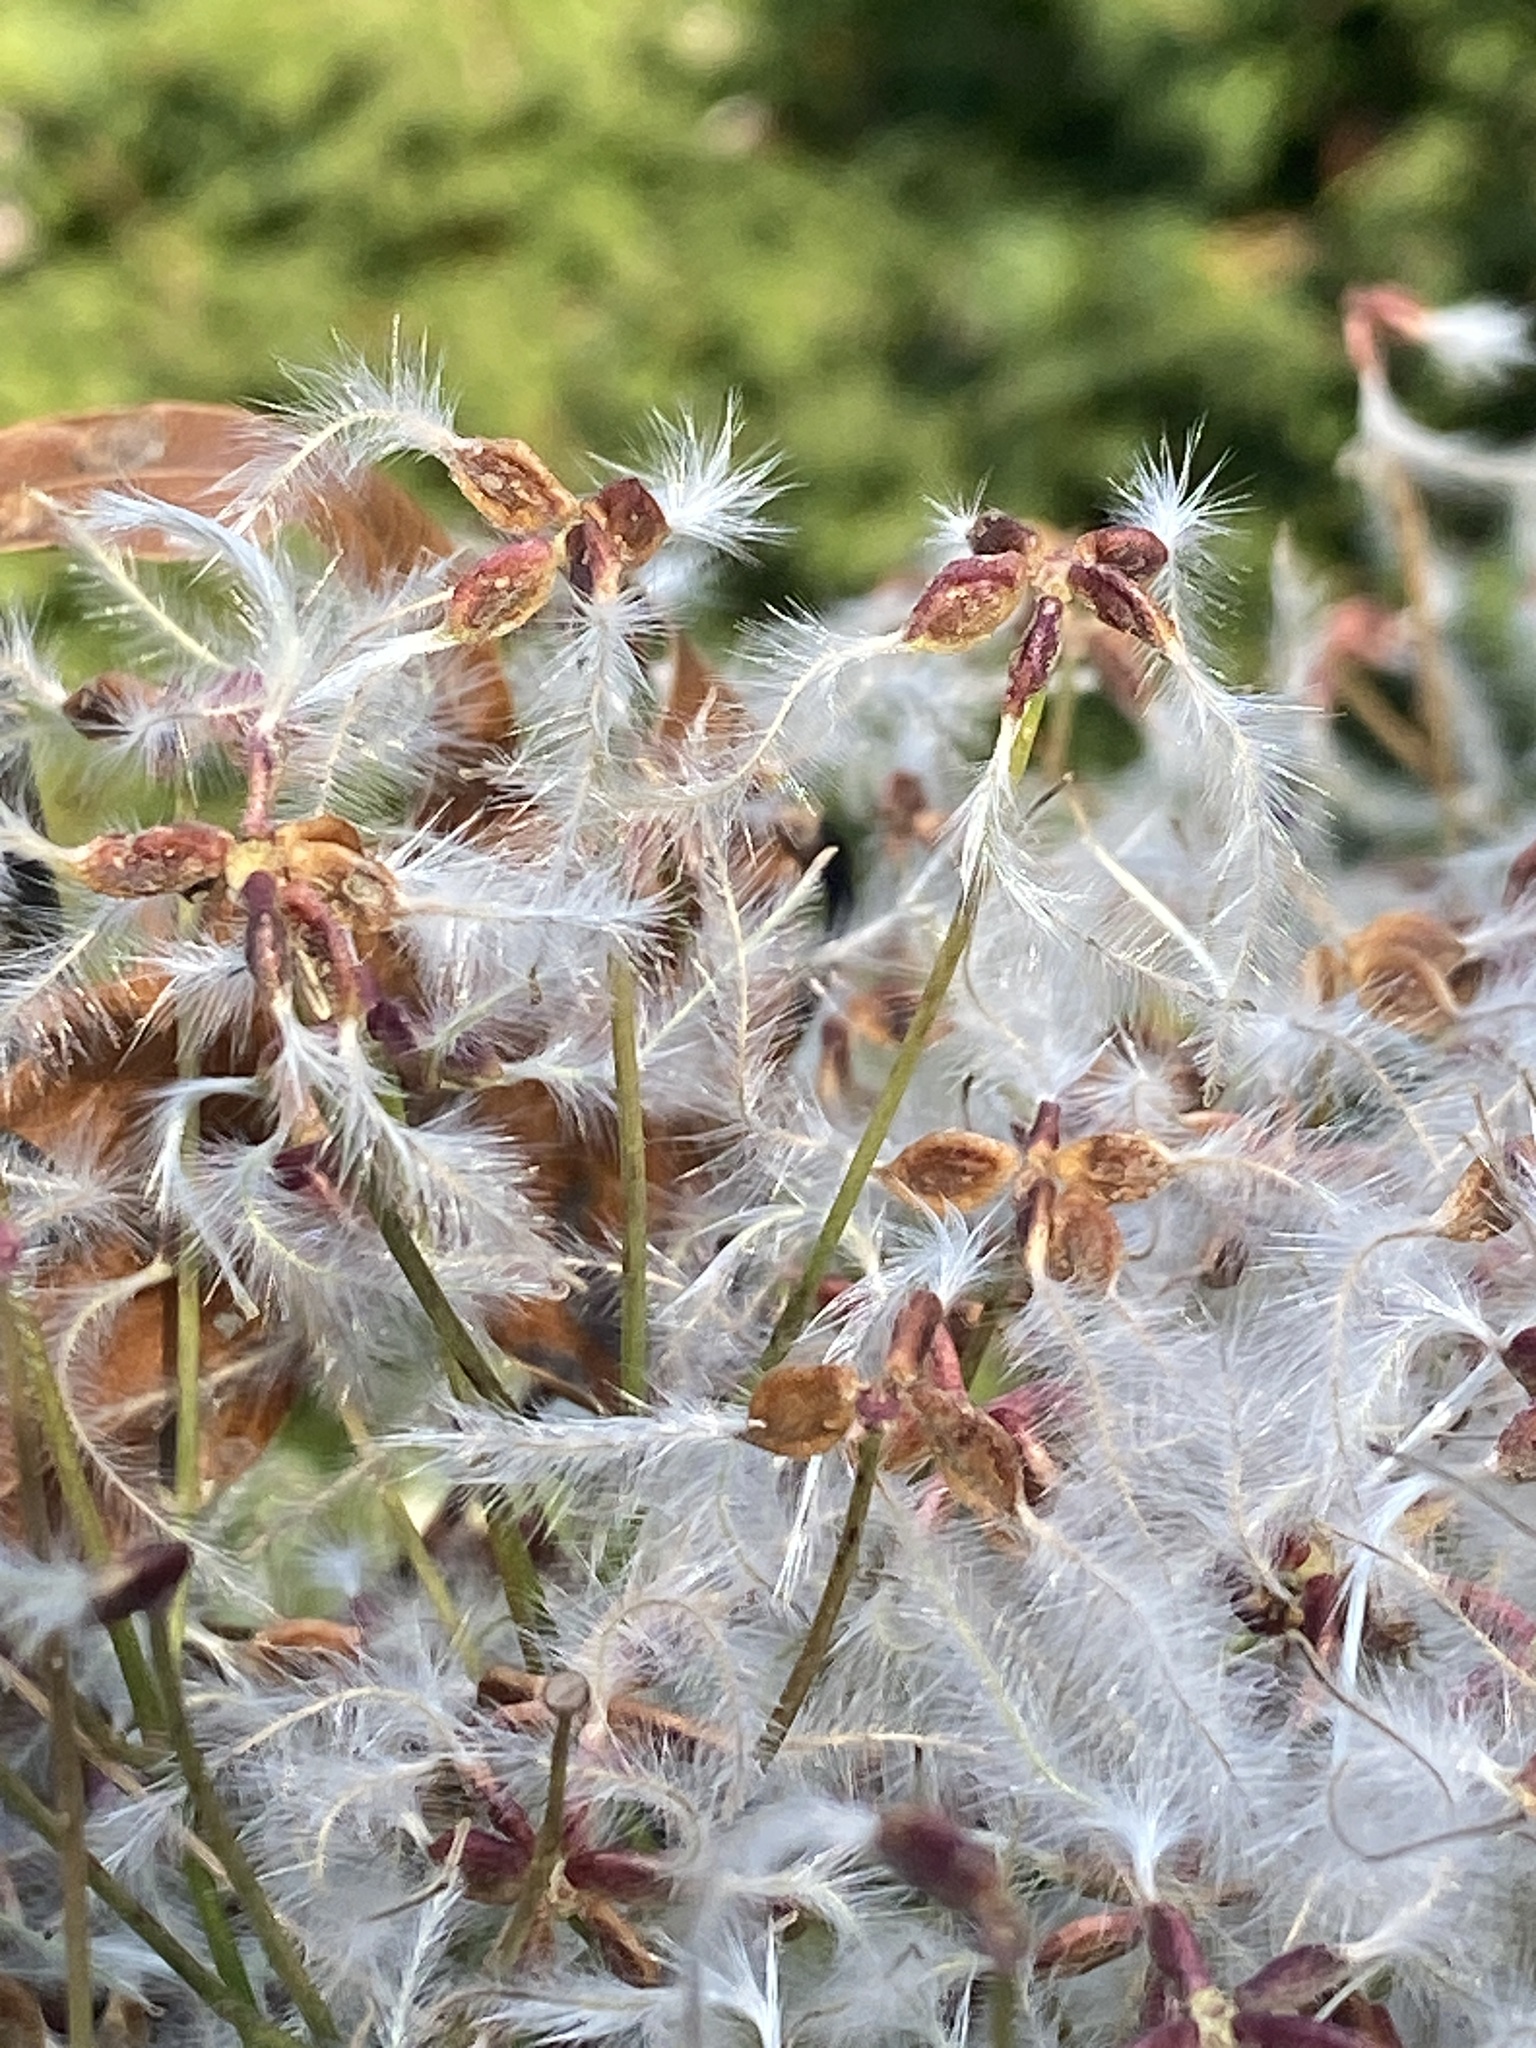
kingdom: Plantae
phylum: Tracheophyta
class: Magnoliopsida
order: Ranunculales
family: Ranunculaceae
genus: Clematis
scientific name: Clematis terniflora
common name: Sweet autumn clematis
